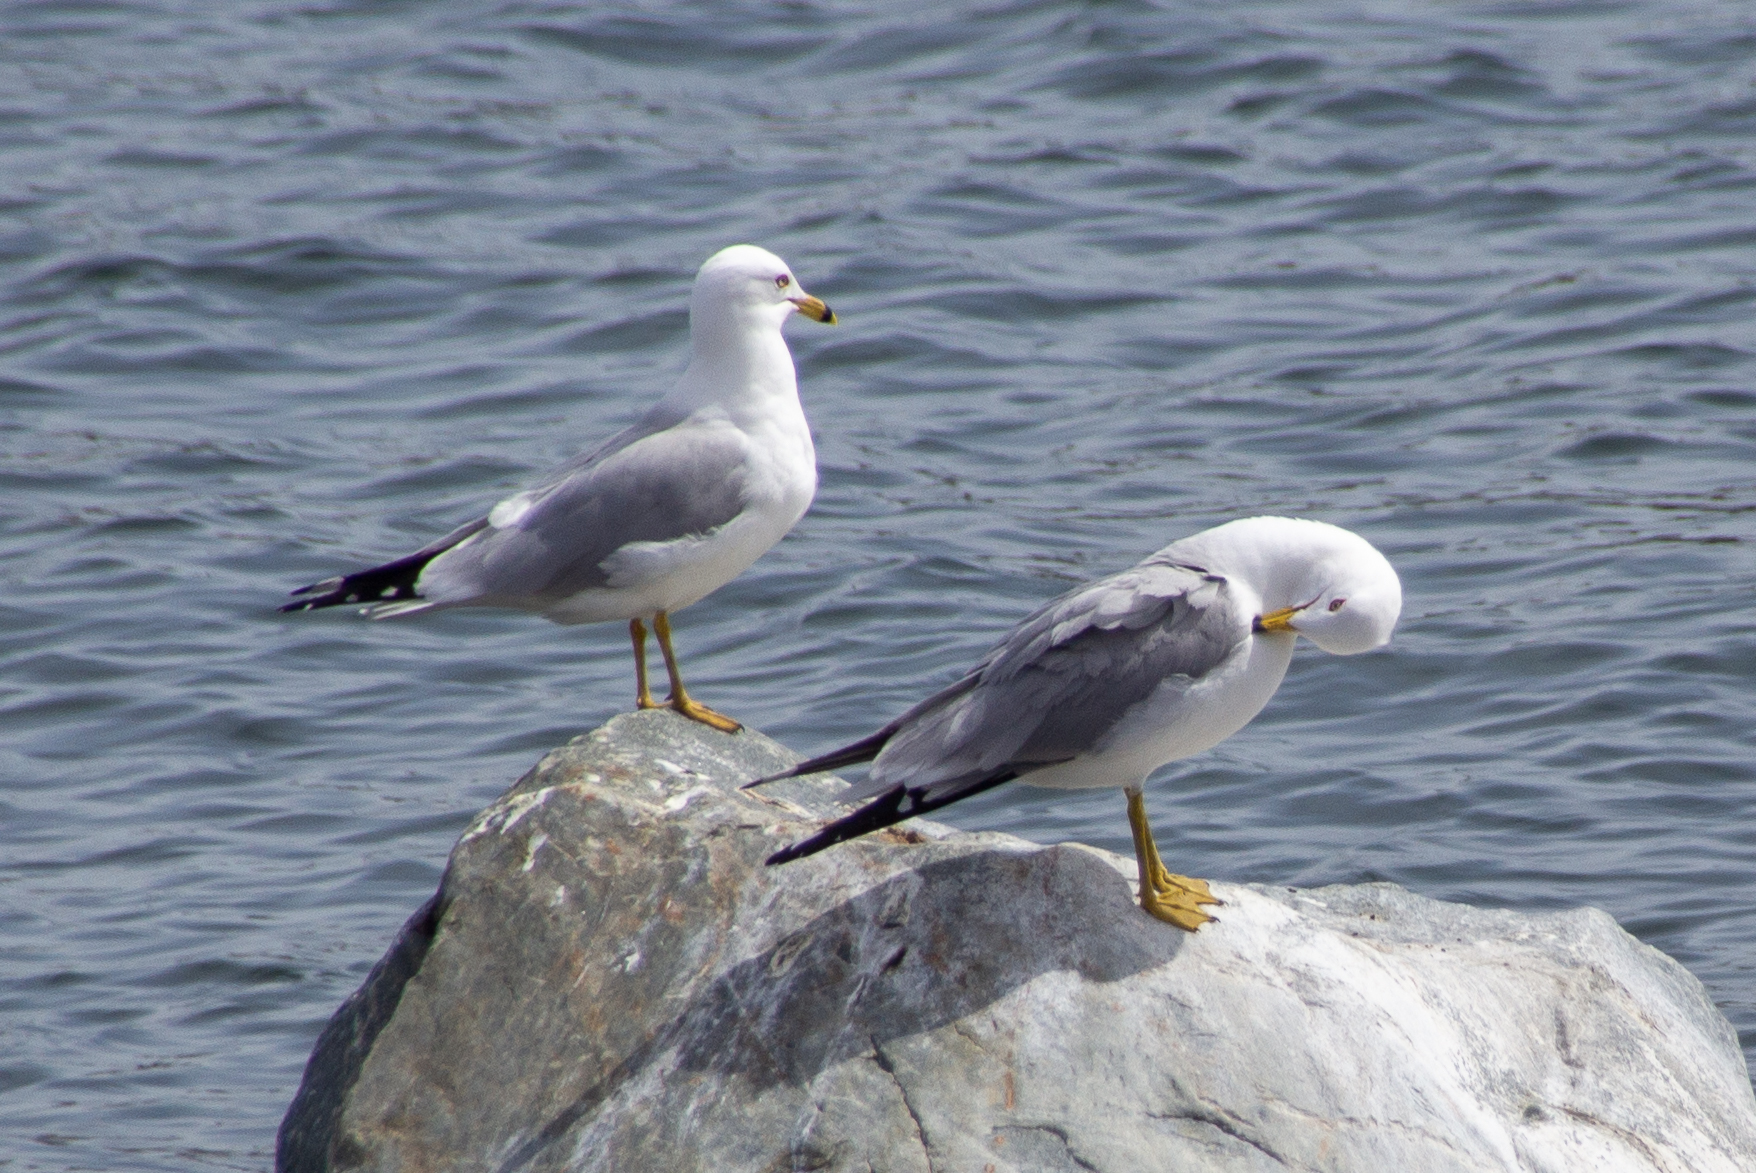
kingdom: Animalia
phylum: Chordata
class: Aves
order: Charadriiformes
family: Laridae
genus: Larus
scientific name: Larus delawarensis
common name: Ring-billed gull
